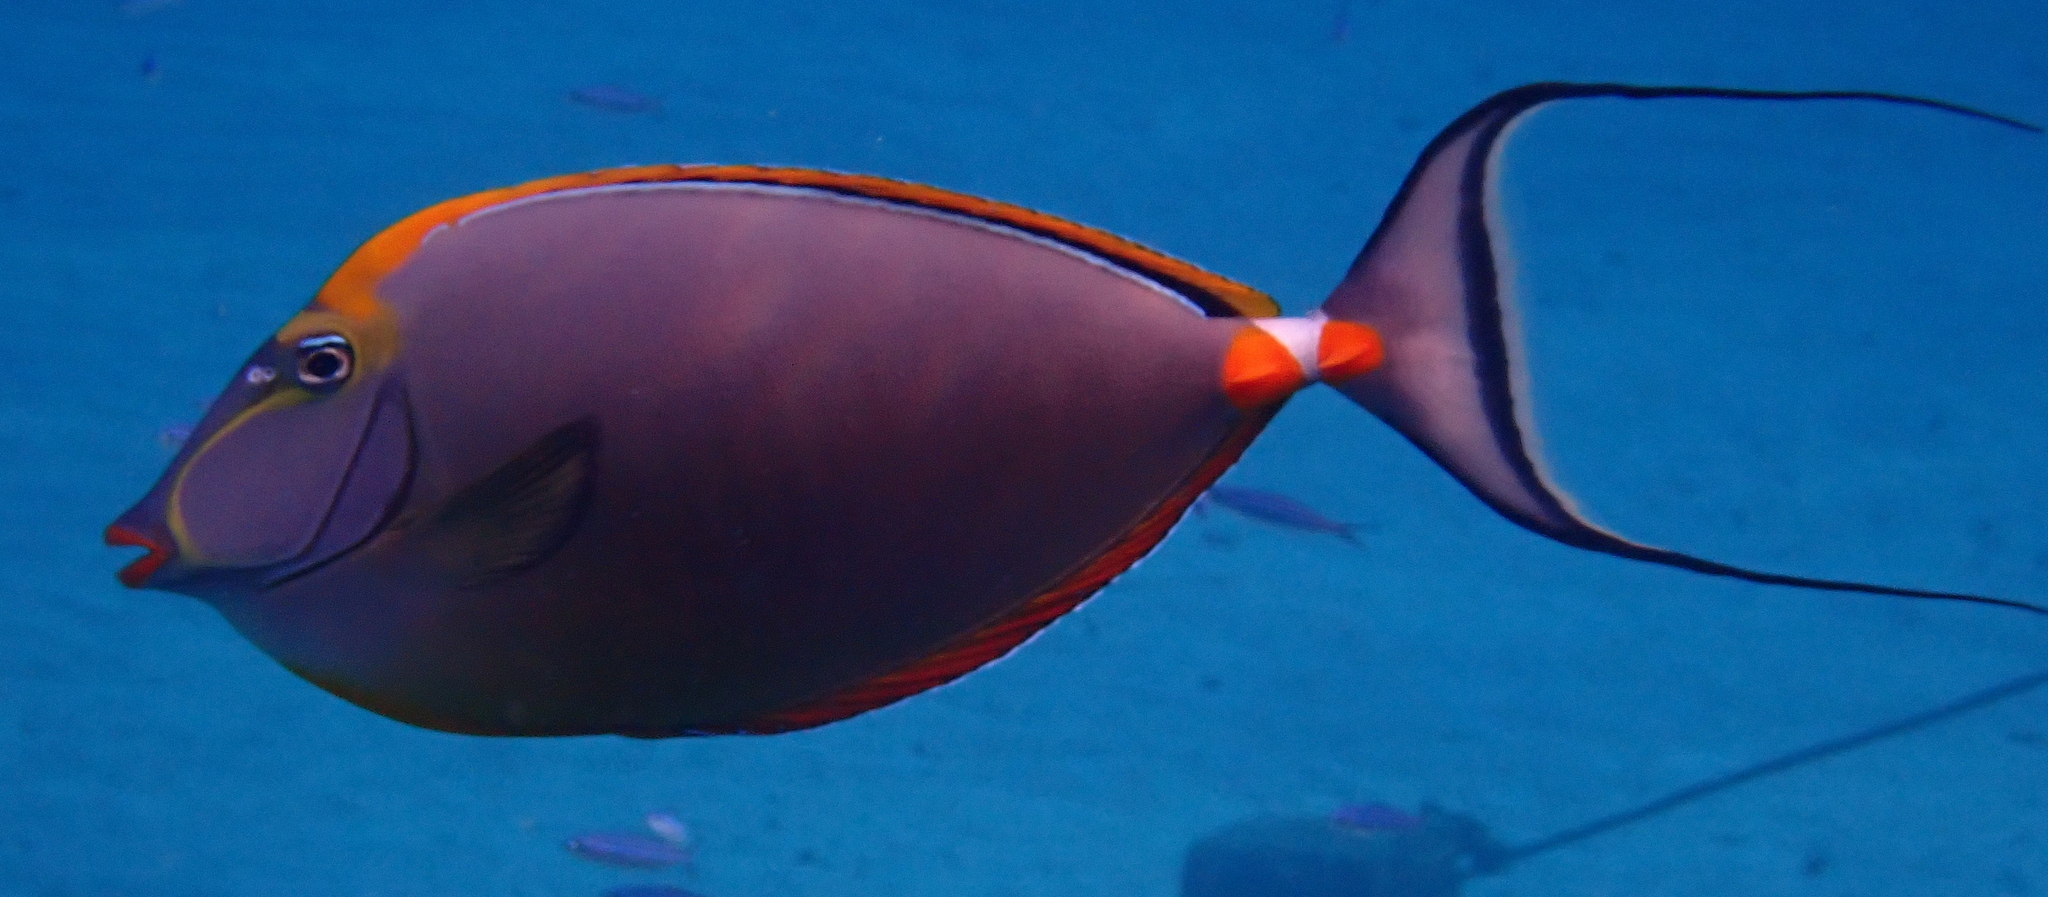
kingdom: Animalia
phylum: Chordata
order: Perciformes
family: Acanthuridae
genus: Naso
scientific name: Naso elegans
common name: Orangespine unicornfish
